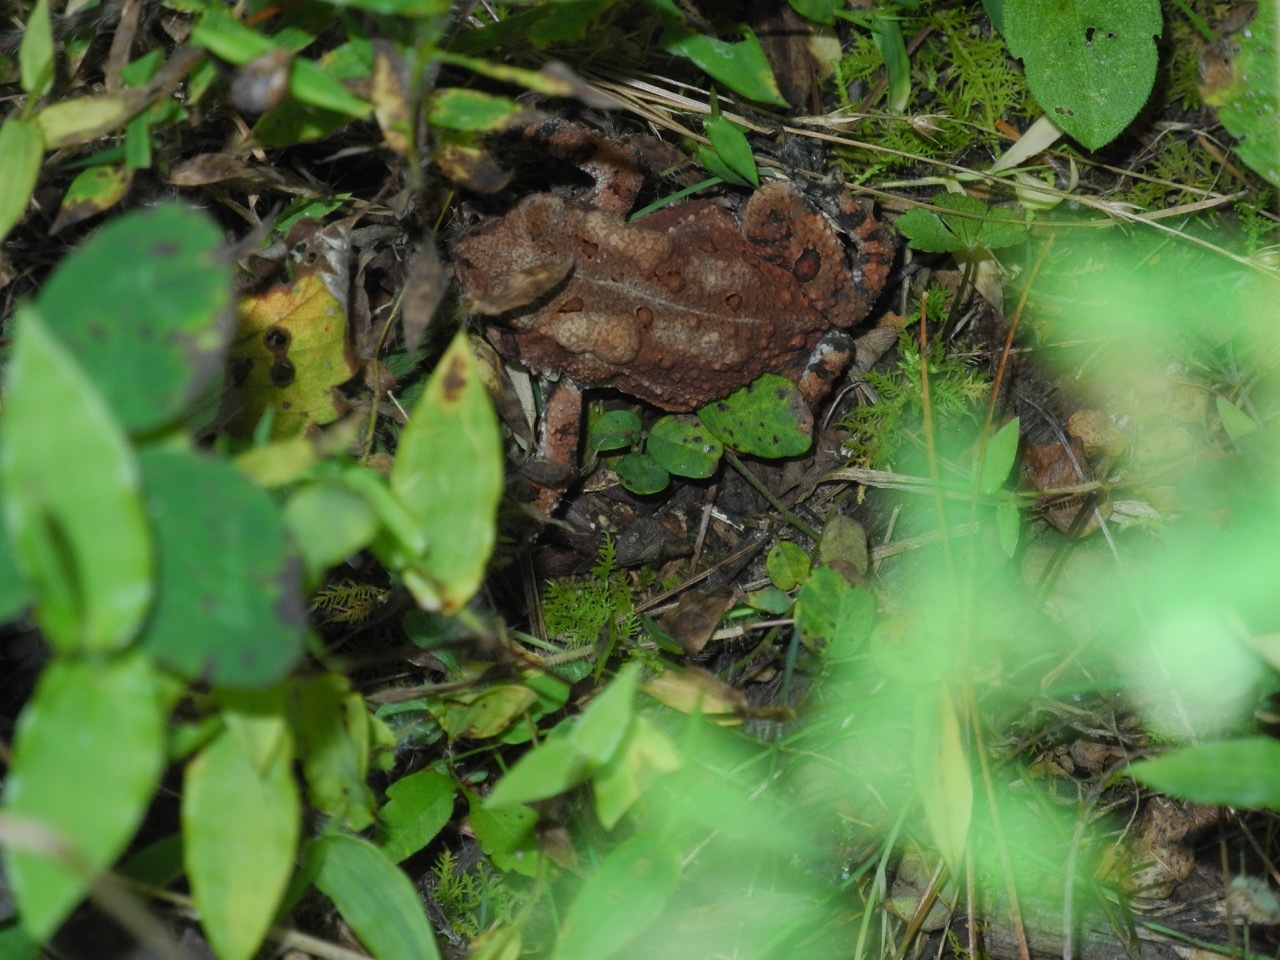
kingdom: Animalia
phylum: Chordata
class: Amphibia
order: Anura
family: Bufonidae
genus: Anaxyrus
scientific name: Anaxyrus americanus
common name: American toad
